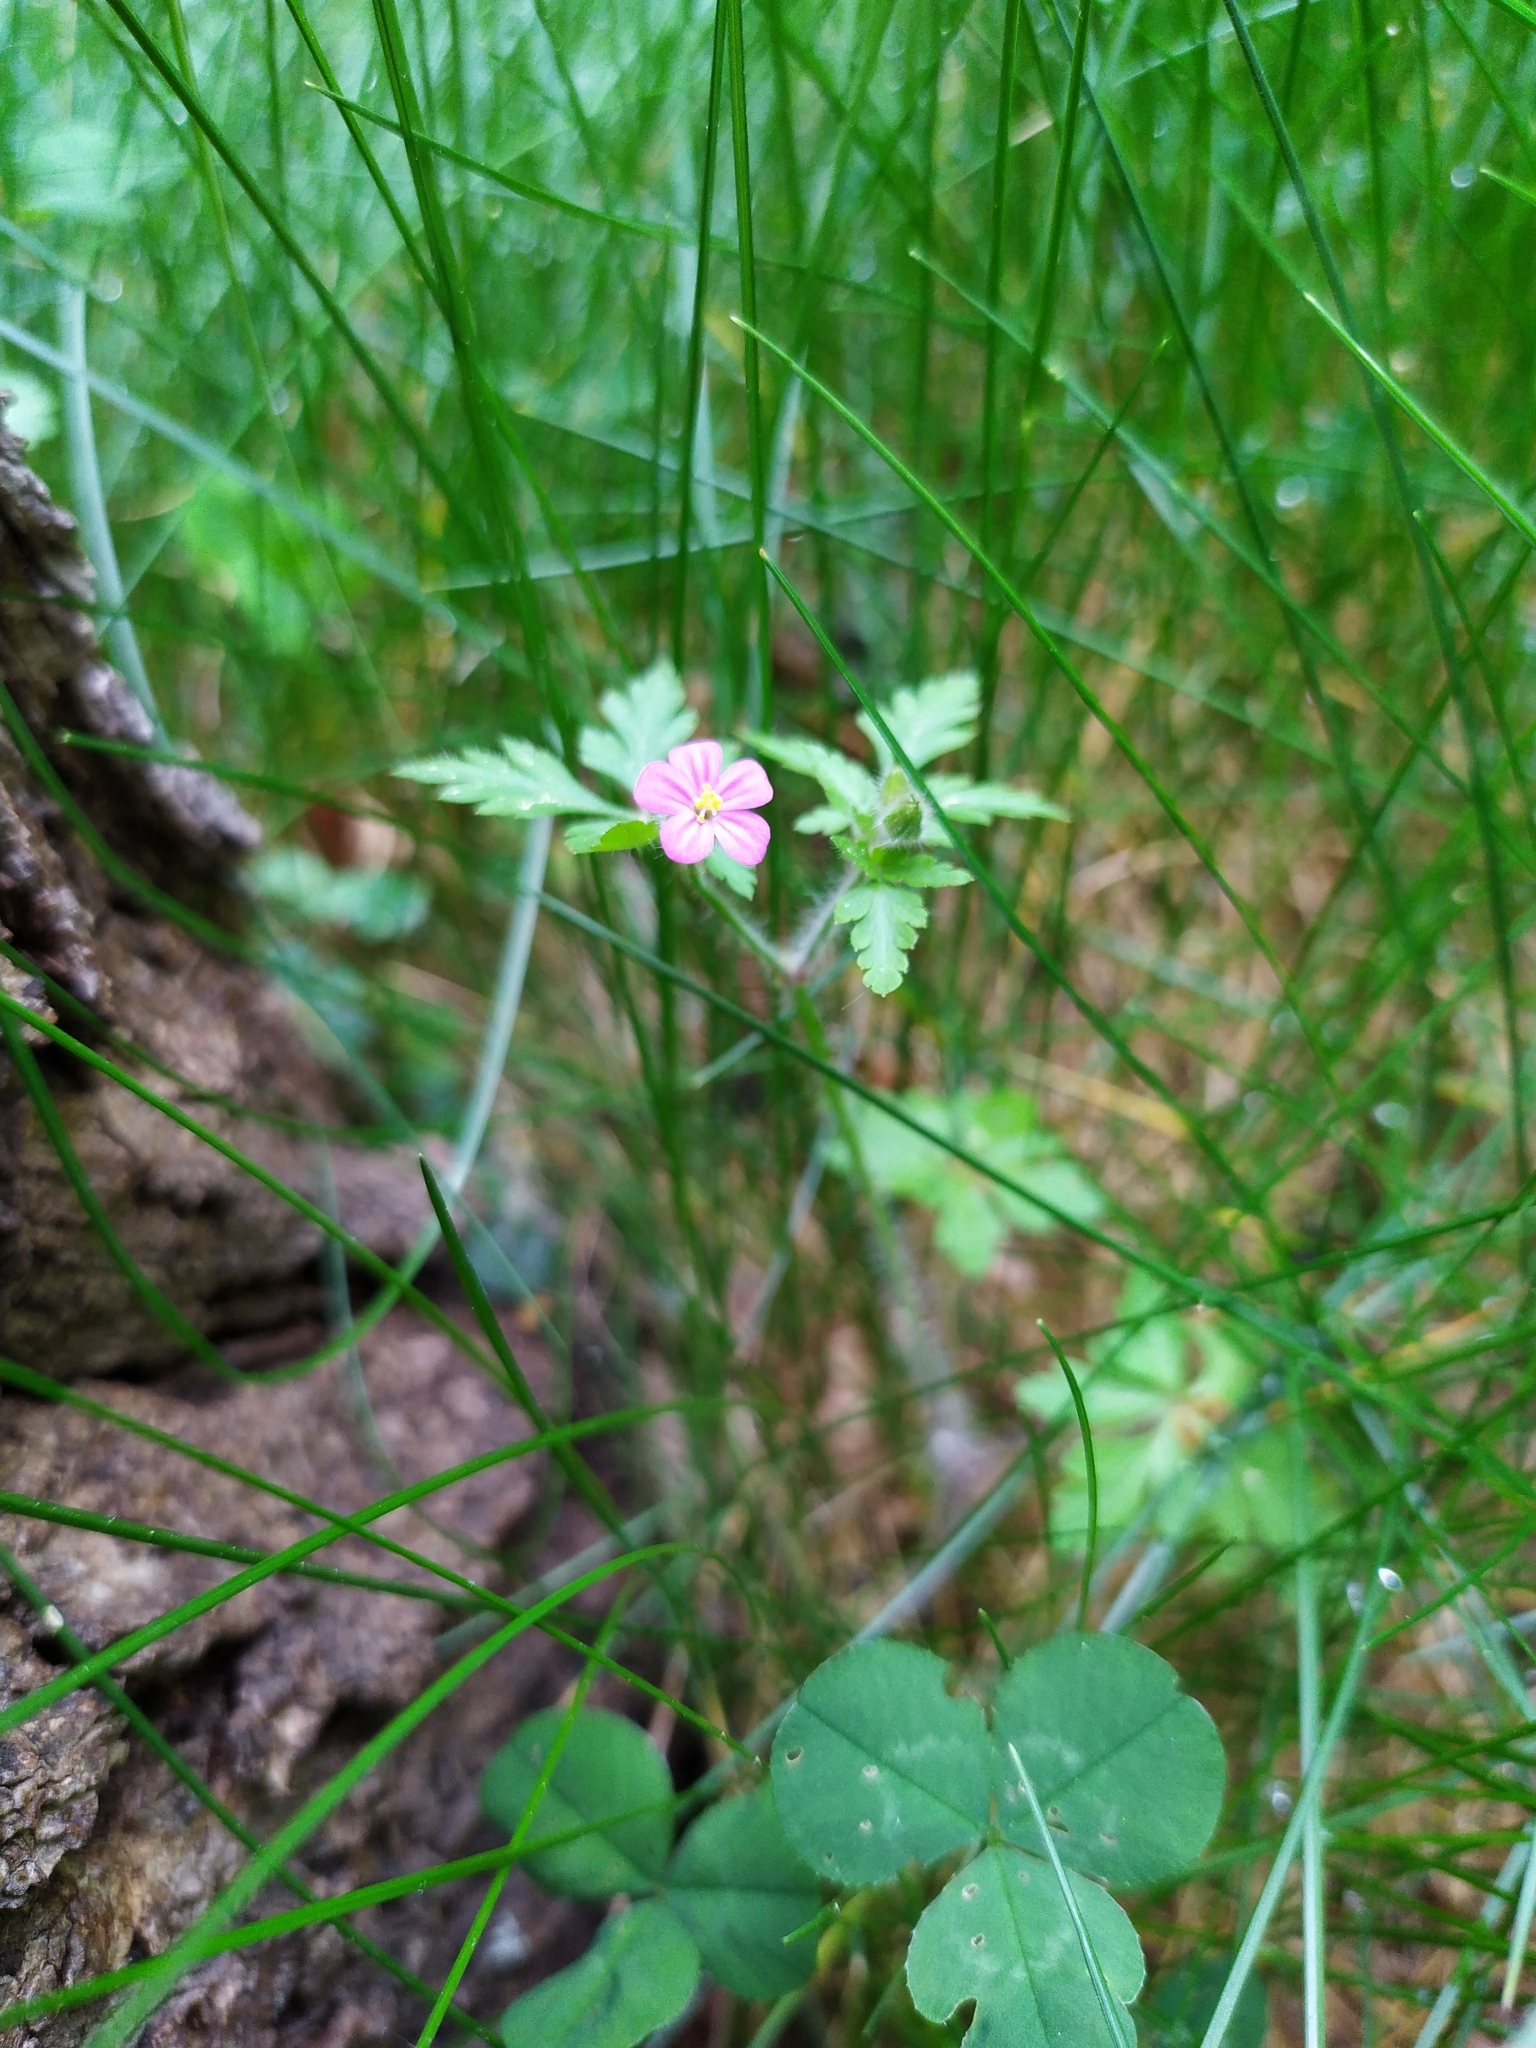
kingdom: Plantae
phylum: Tracheophyta
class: Magnoliopsida
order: Geraniales
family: Geraniaceae
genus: Geranium
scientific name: Geranium purpureum
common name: Little-robin
